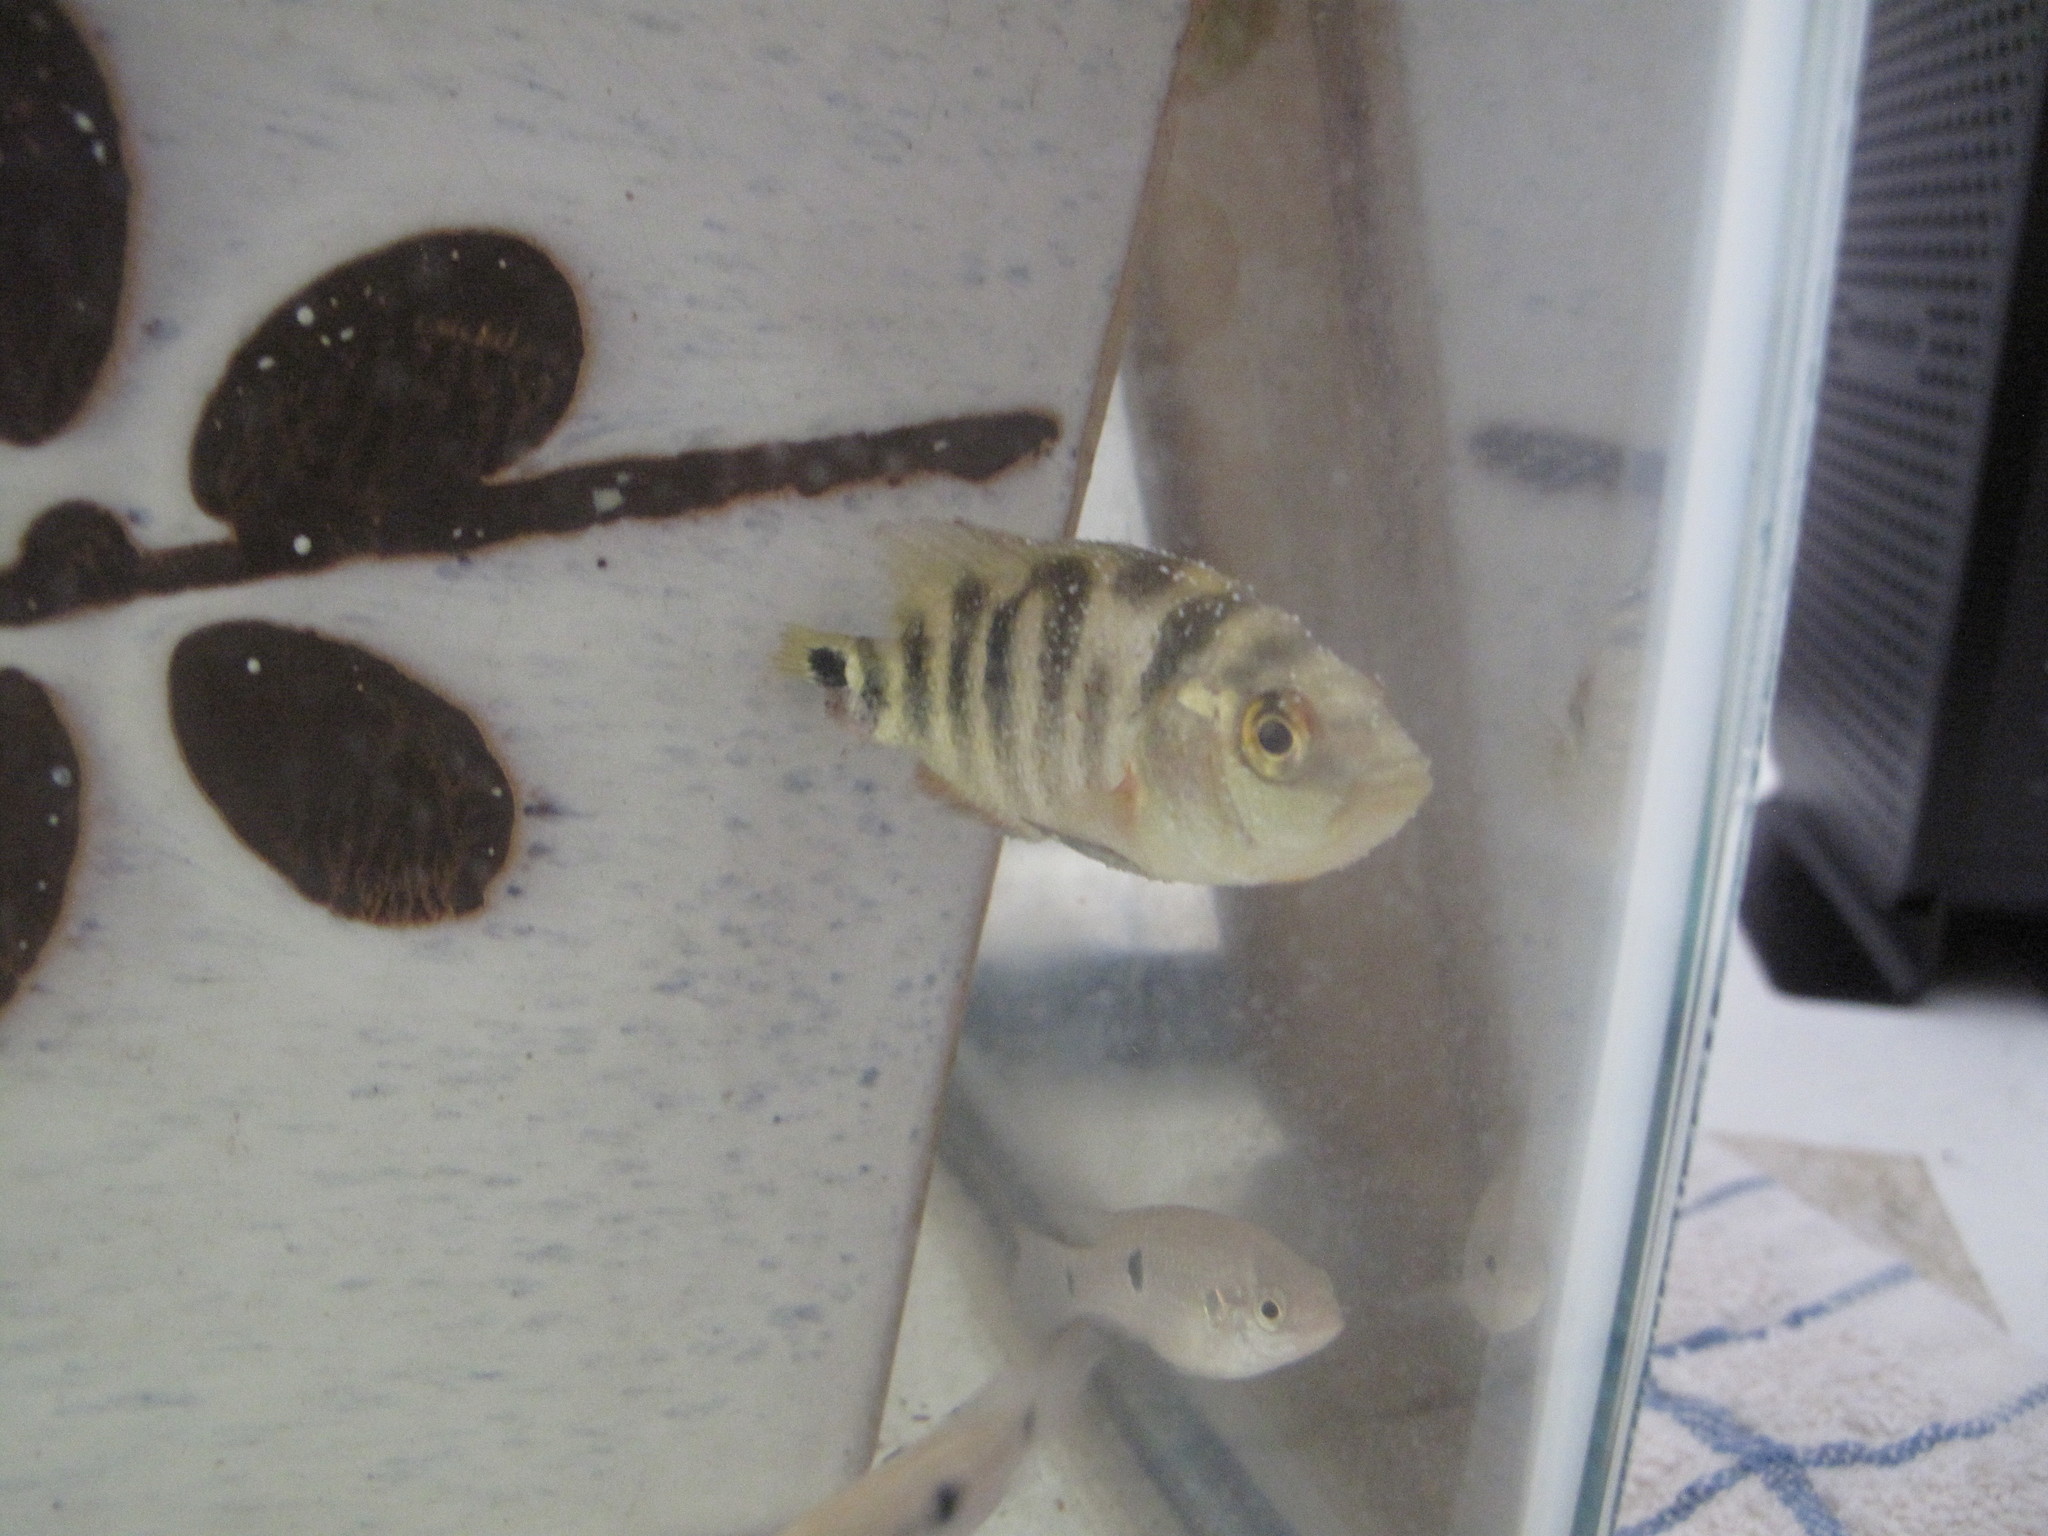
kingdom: Animalia
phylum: Chordata
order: Perciformes
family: Cichlidae
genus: Mayaheros
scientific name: Mayaheros urophthalmus
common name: Mayan cichlid
